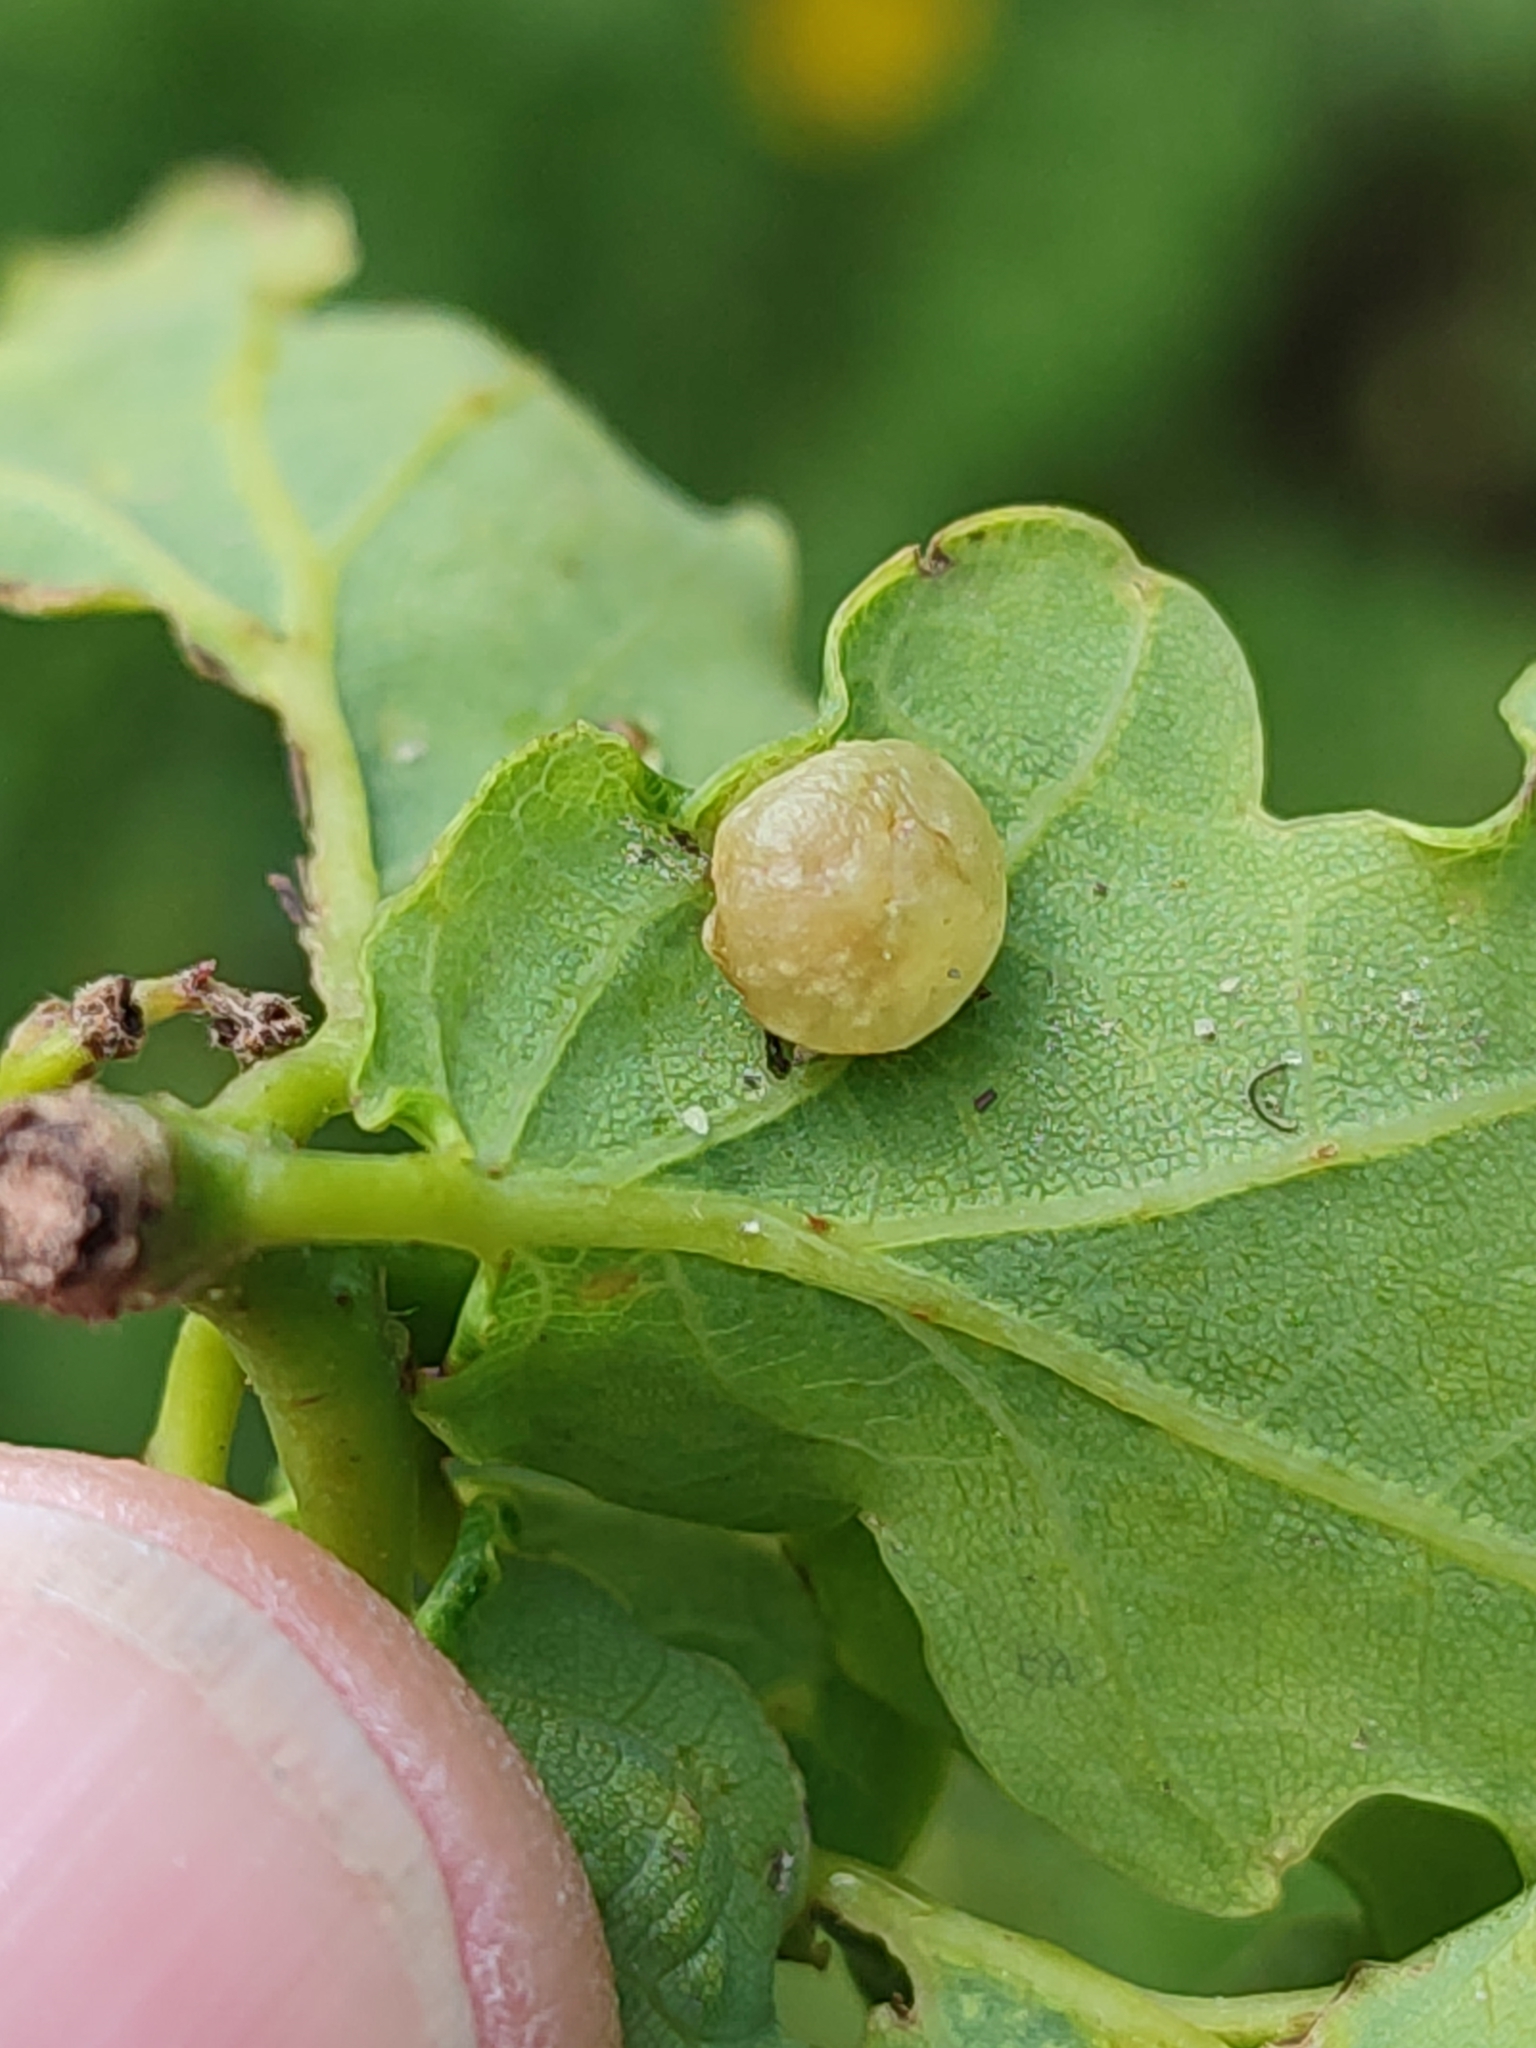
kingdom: Animalia
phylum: Arthropoda
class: Insecta
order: Hymenoptera
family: Cynipidae
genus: Neuroterus
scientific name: Neuroterus quercusbaccarum
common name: Common spangle gall
